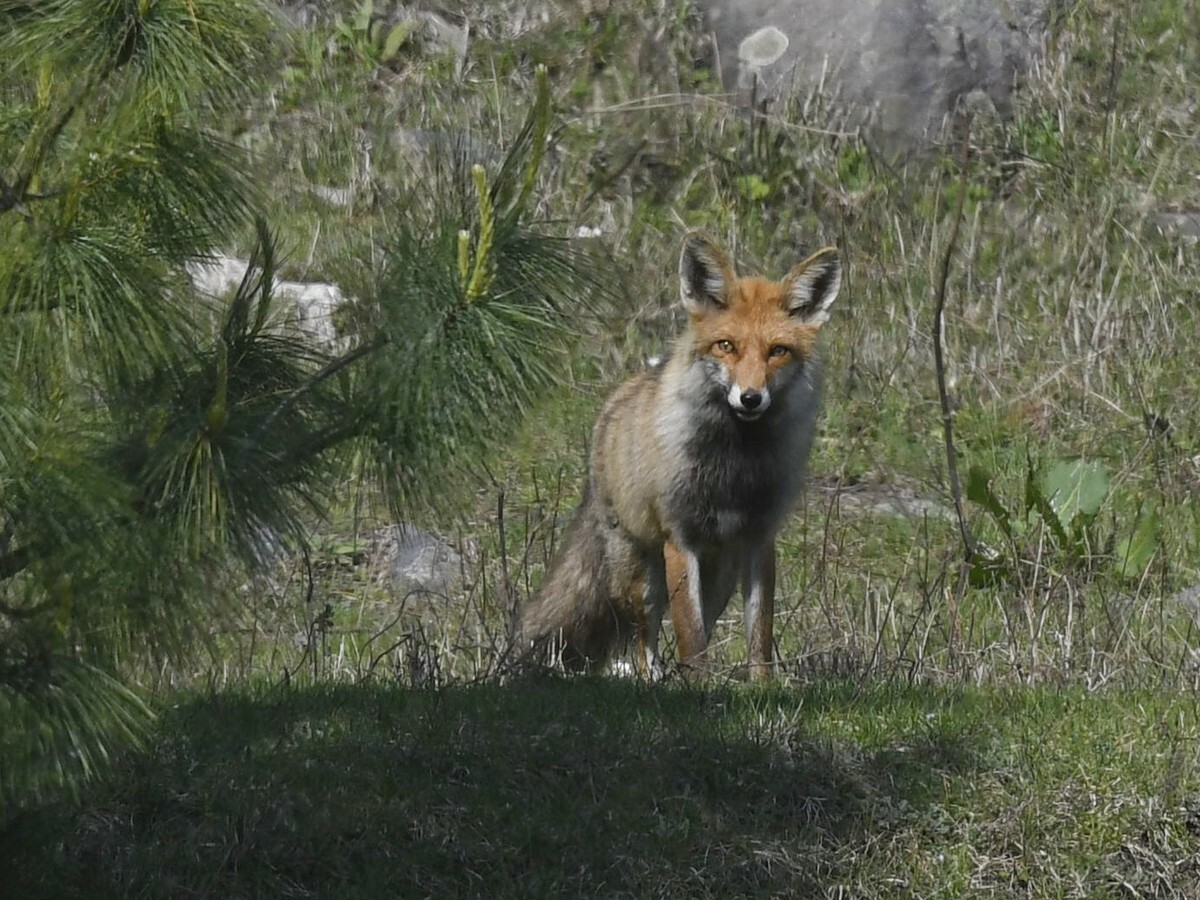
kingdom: Animalia
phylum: Chordata
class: Mammalia
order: Carnivora
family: Canidae
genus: Vulpes
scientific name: Vulpes vulpes
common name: Red fox
